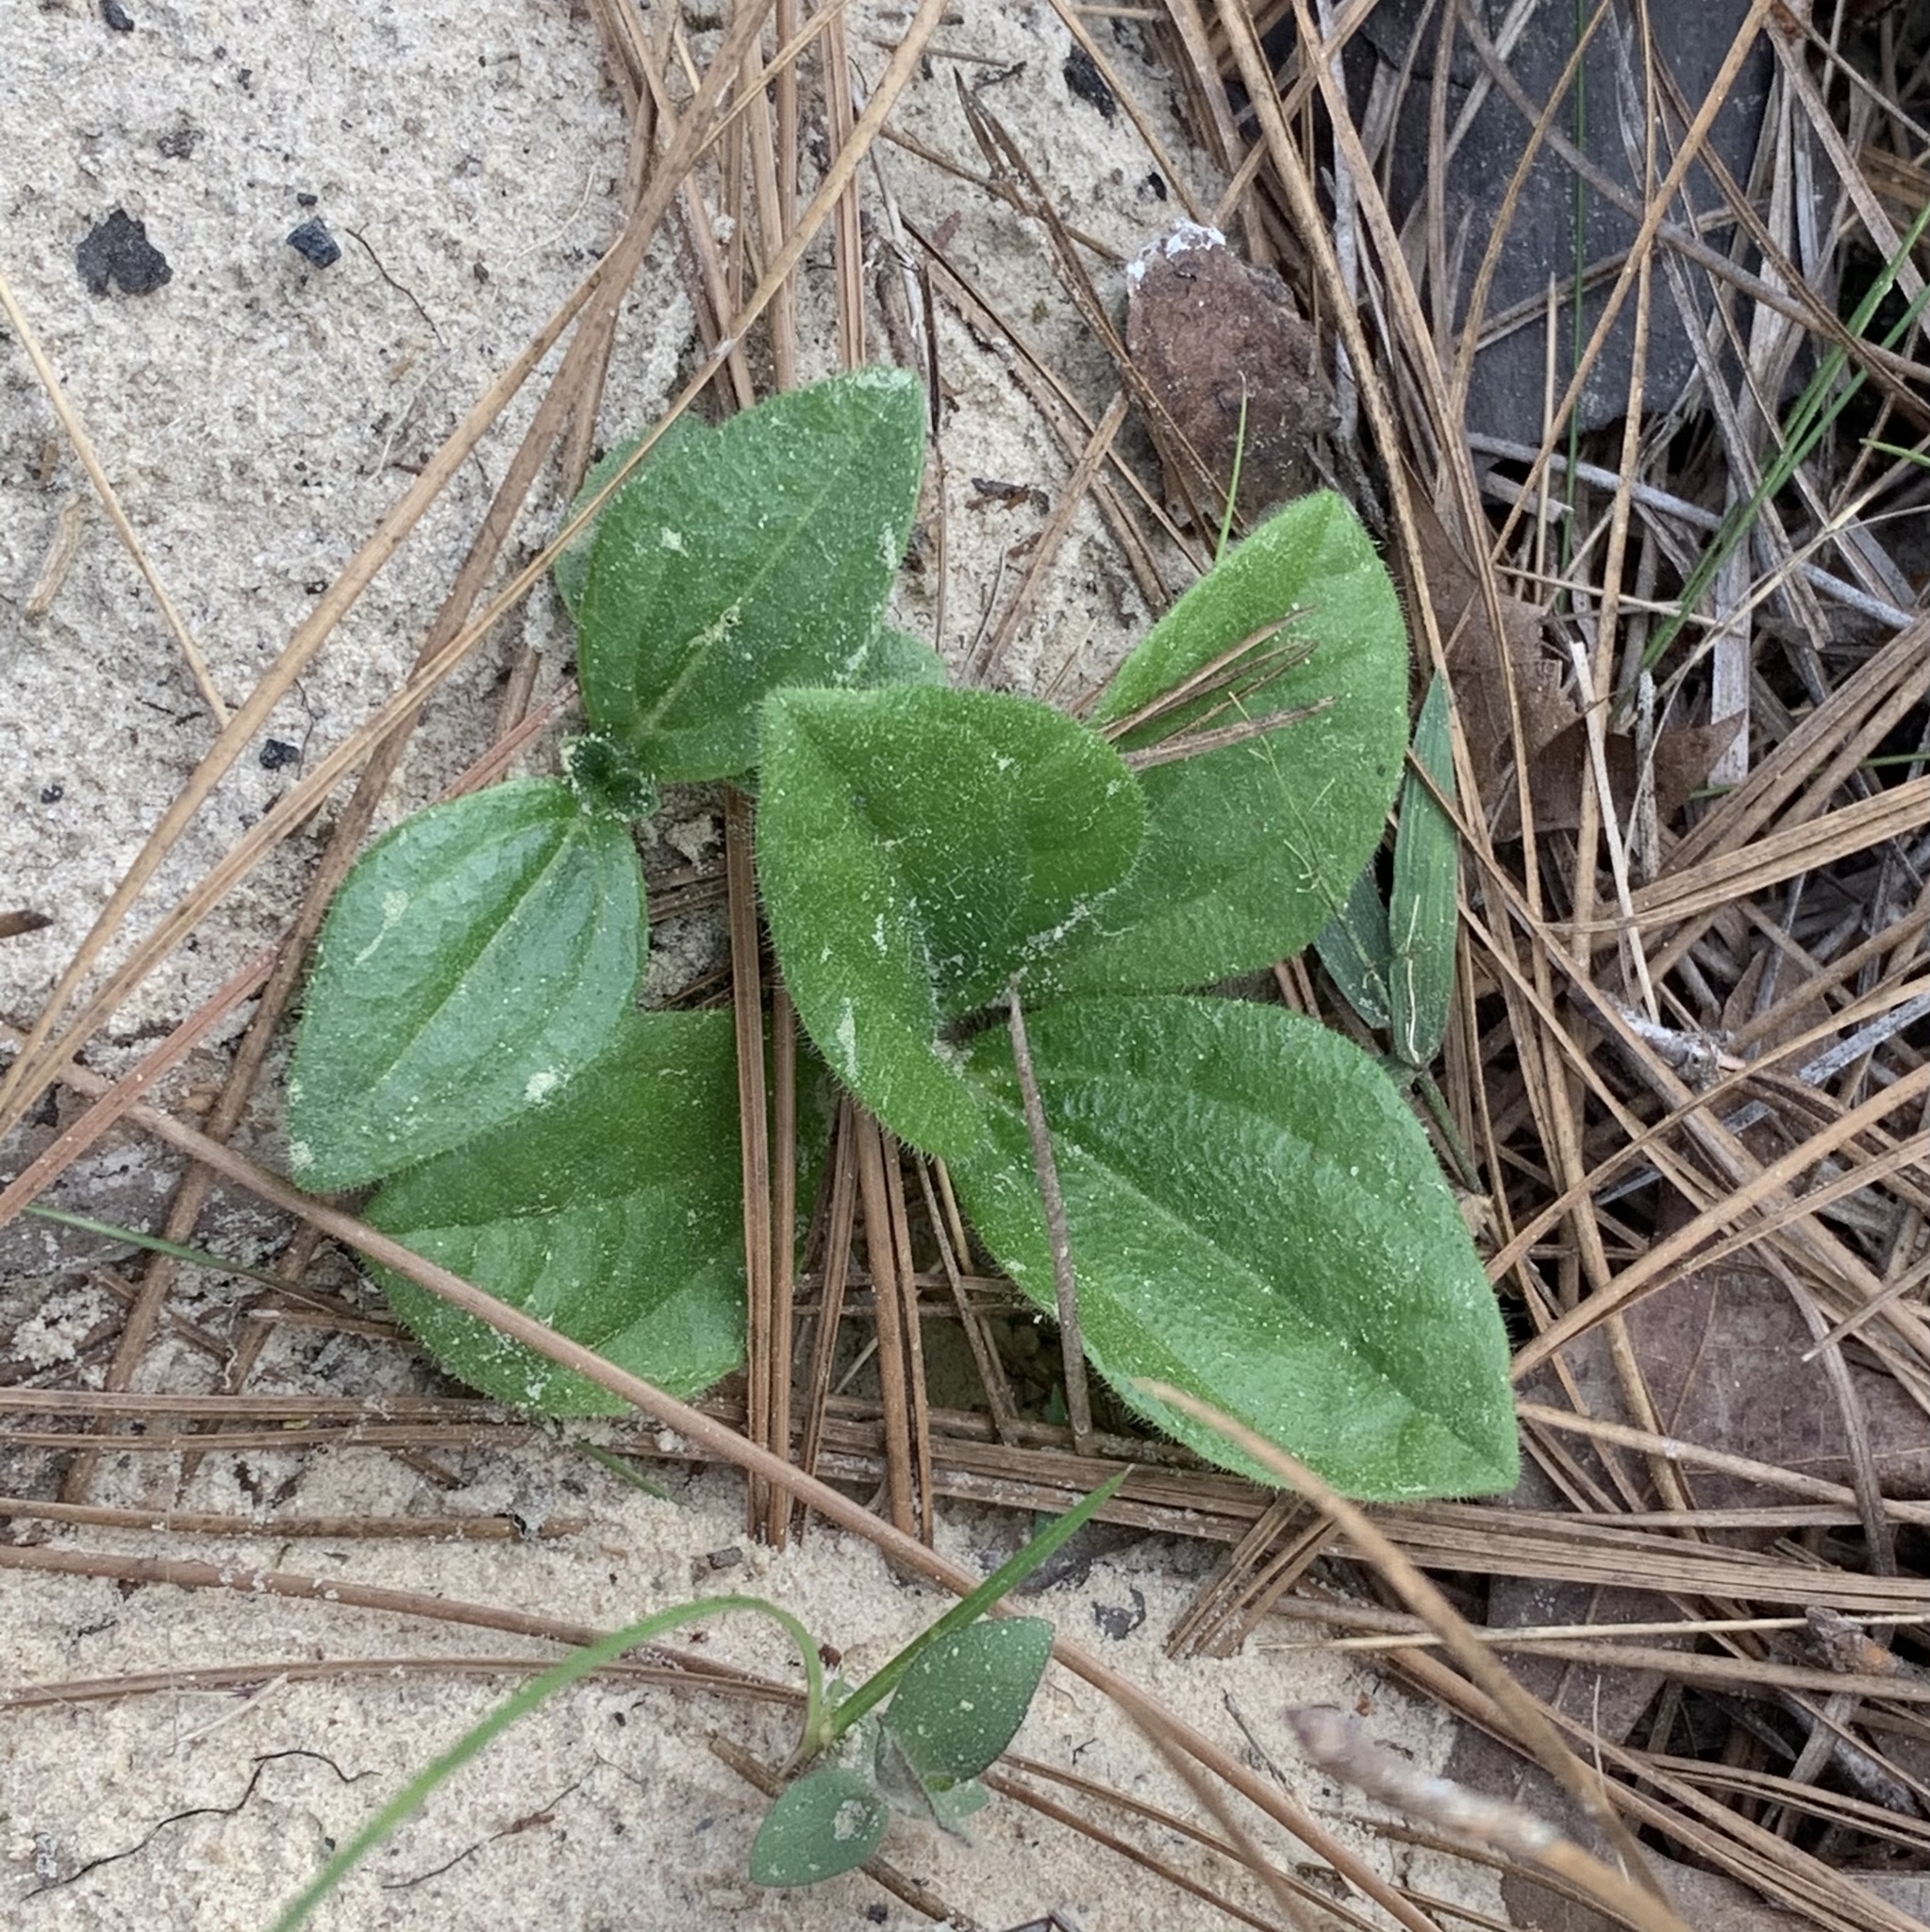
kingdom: Plantae
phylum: Tracheophyta
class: Magnoliopsida
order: Asterales
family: Asteraceae
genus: Helianthus
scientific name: Helianthus radula
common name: Pineland sunflower
